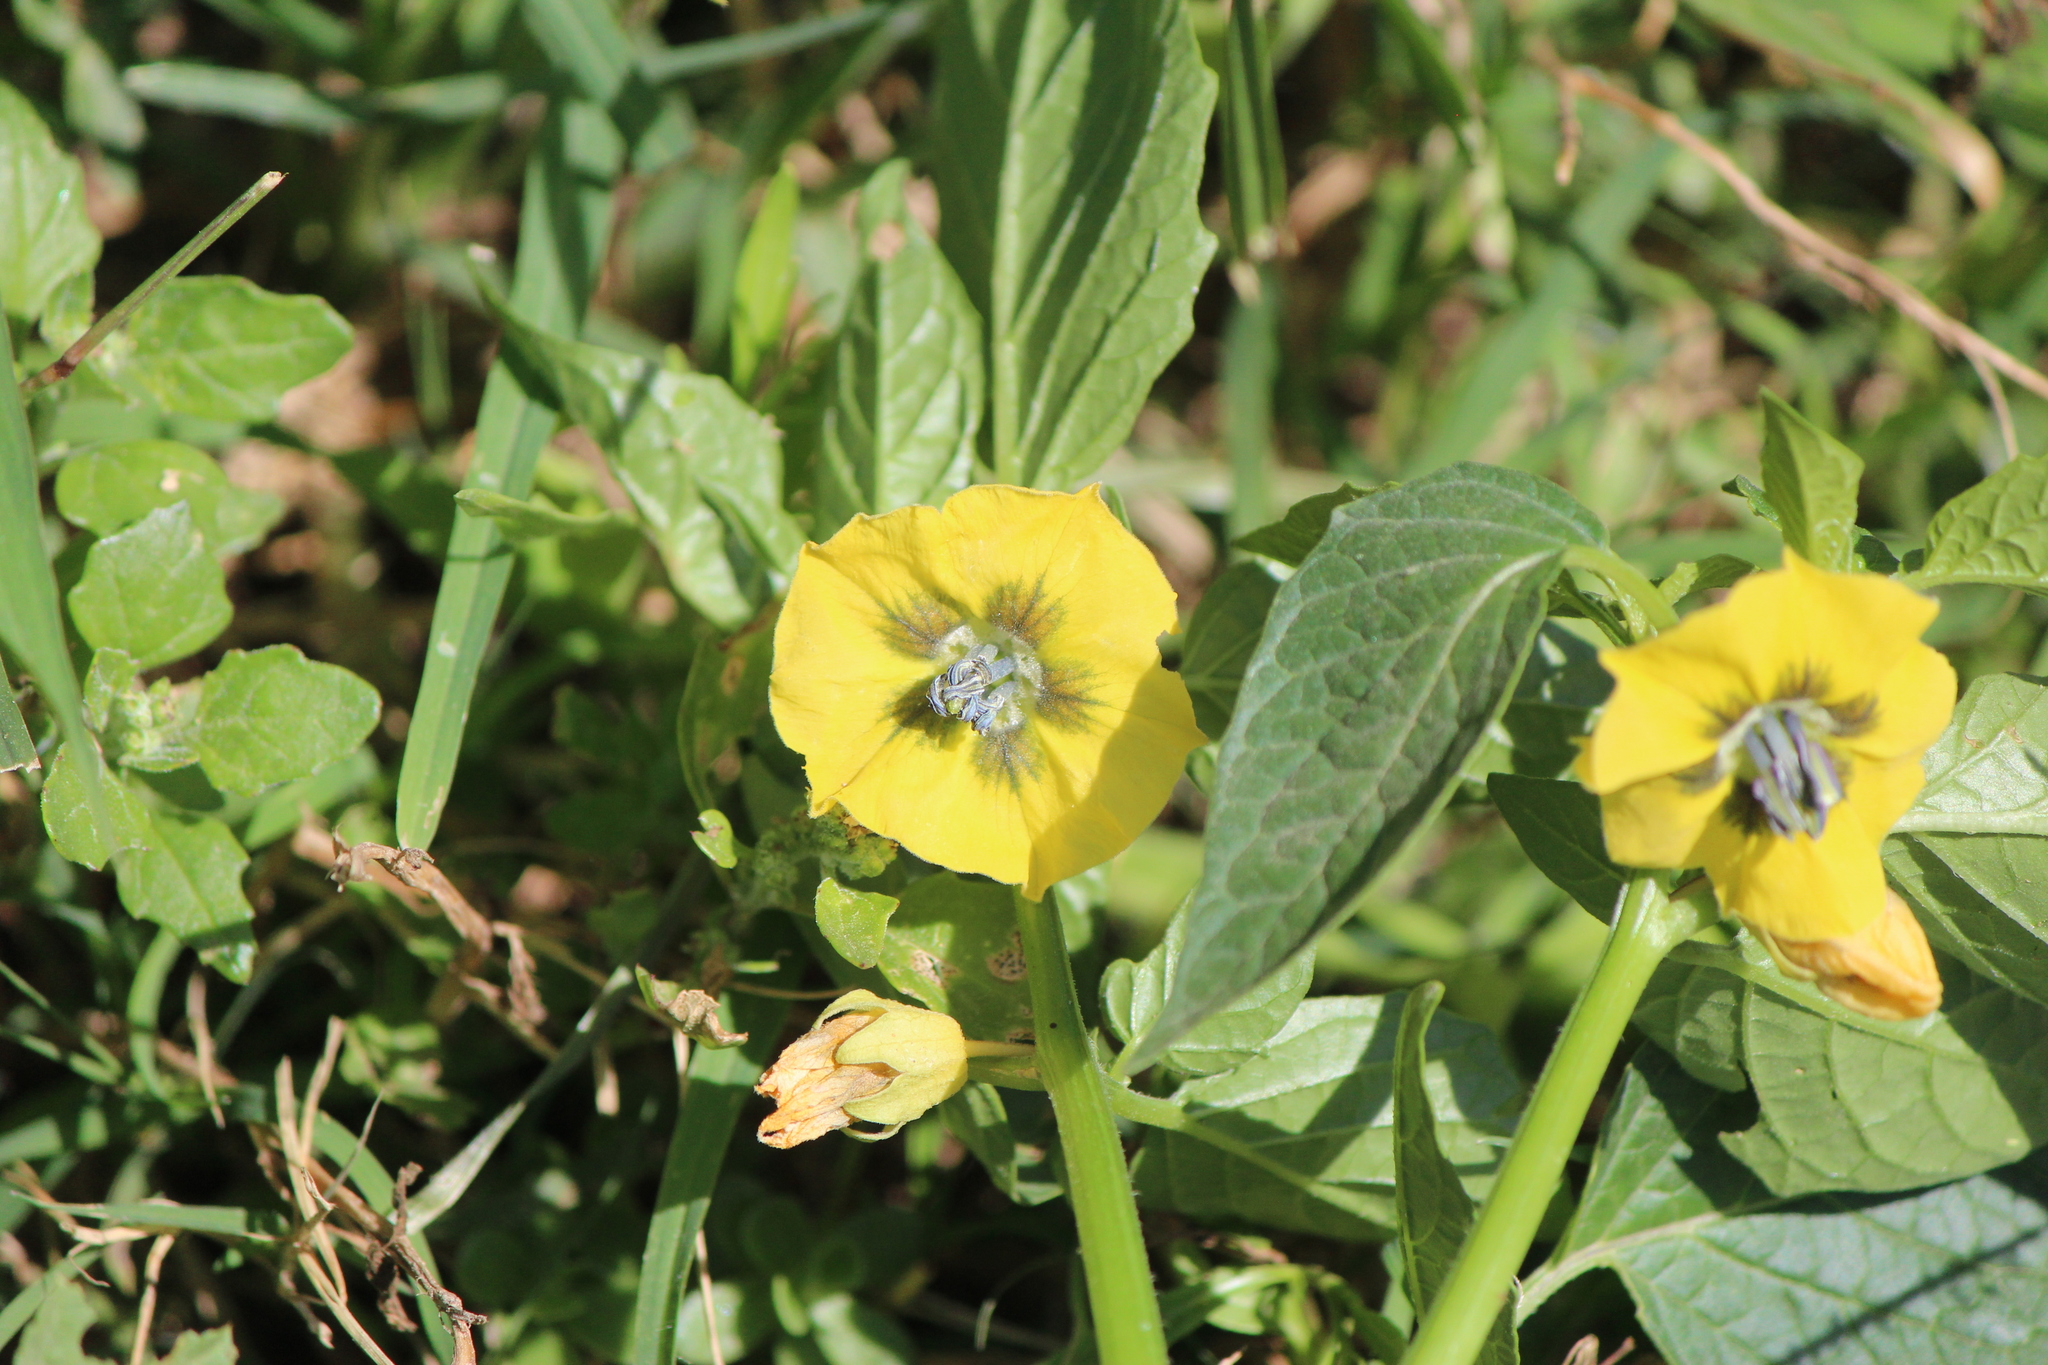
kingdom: Plantae
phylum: Tracheophyta
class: Magnoliopsida
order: Solanales
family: Solanaceae
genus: Physalis
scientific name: Physalis philadelphica
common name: Husk-tomato
